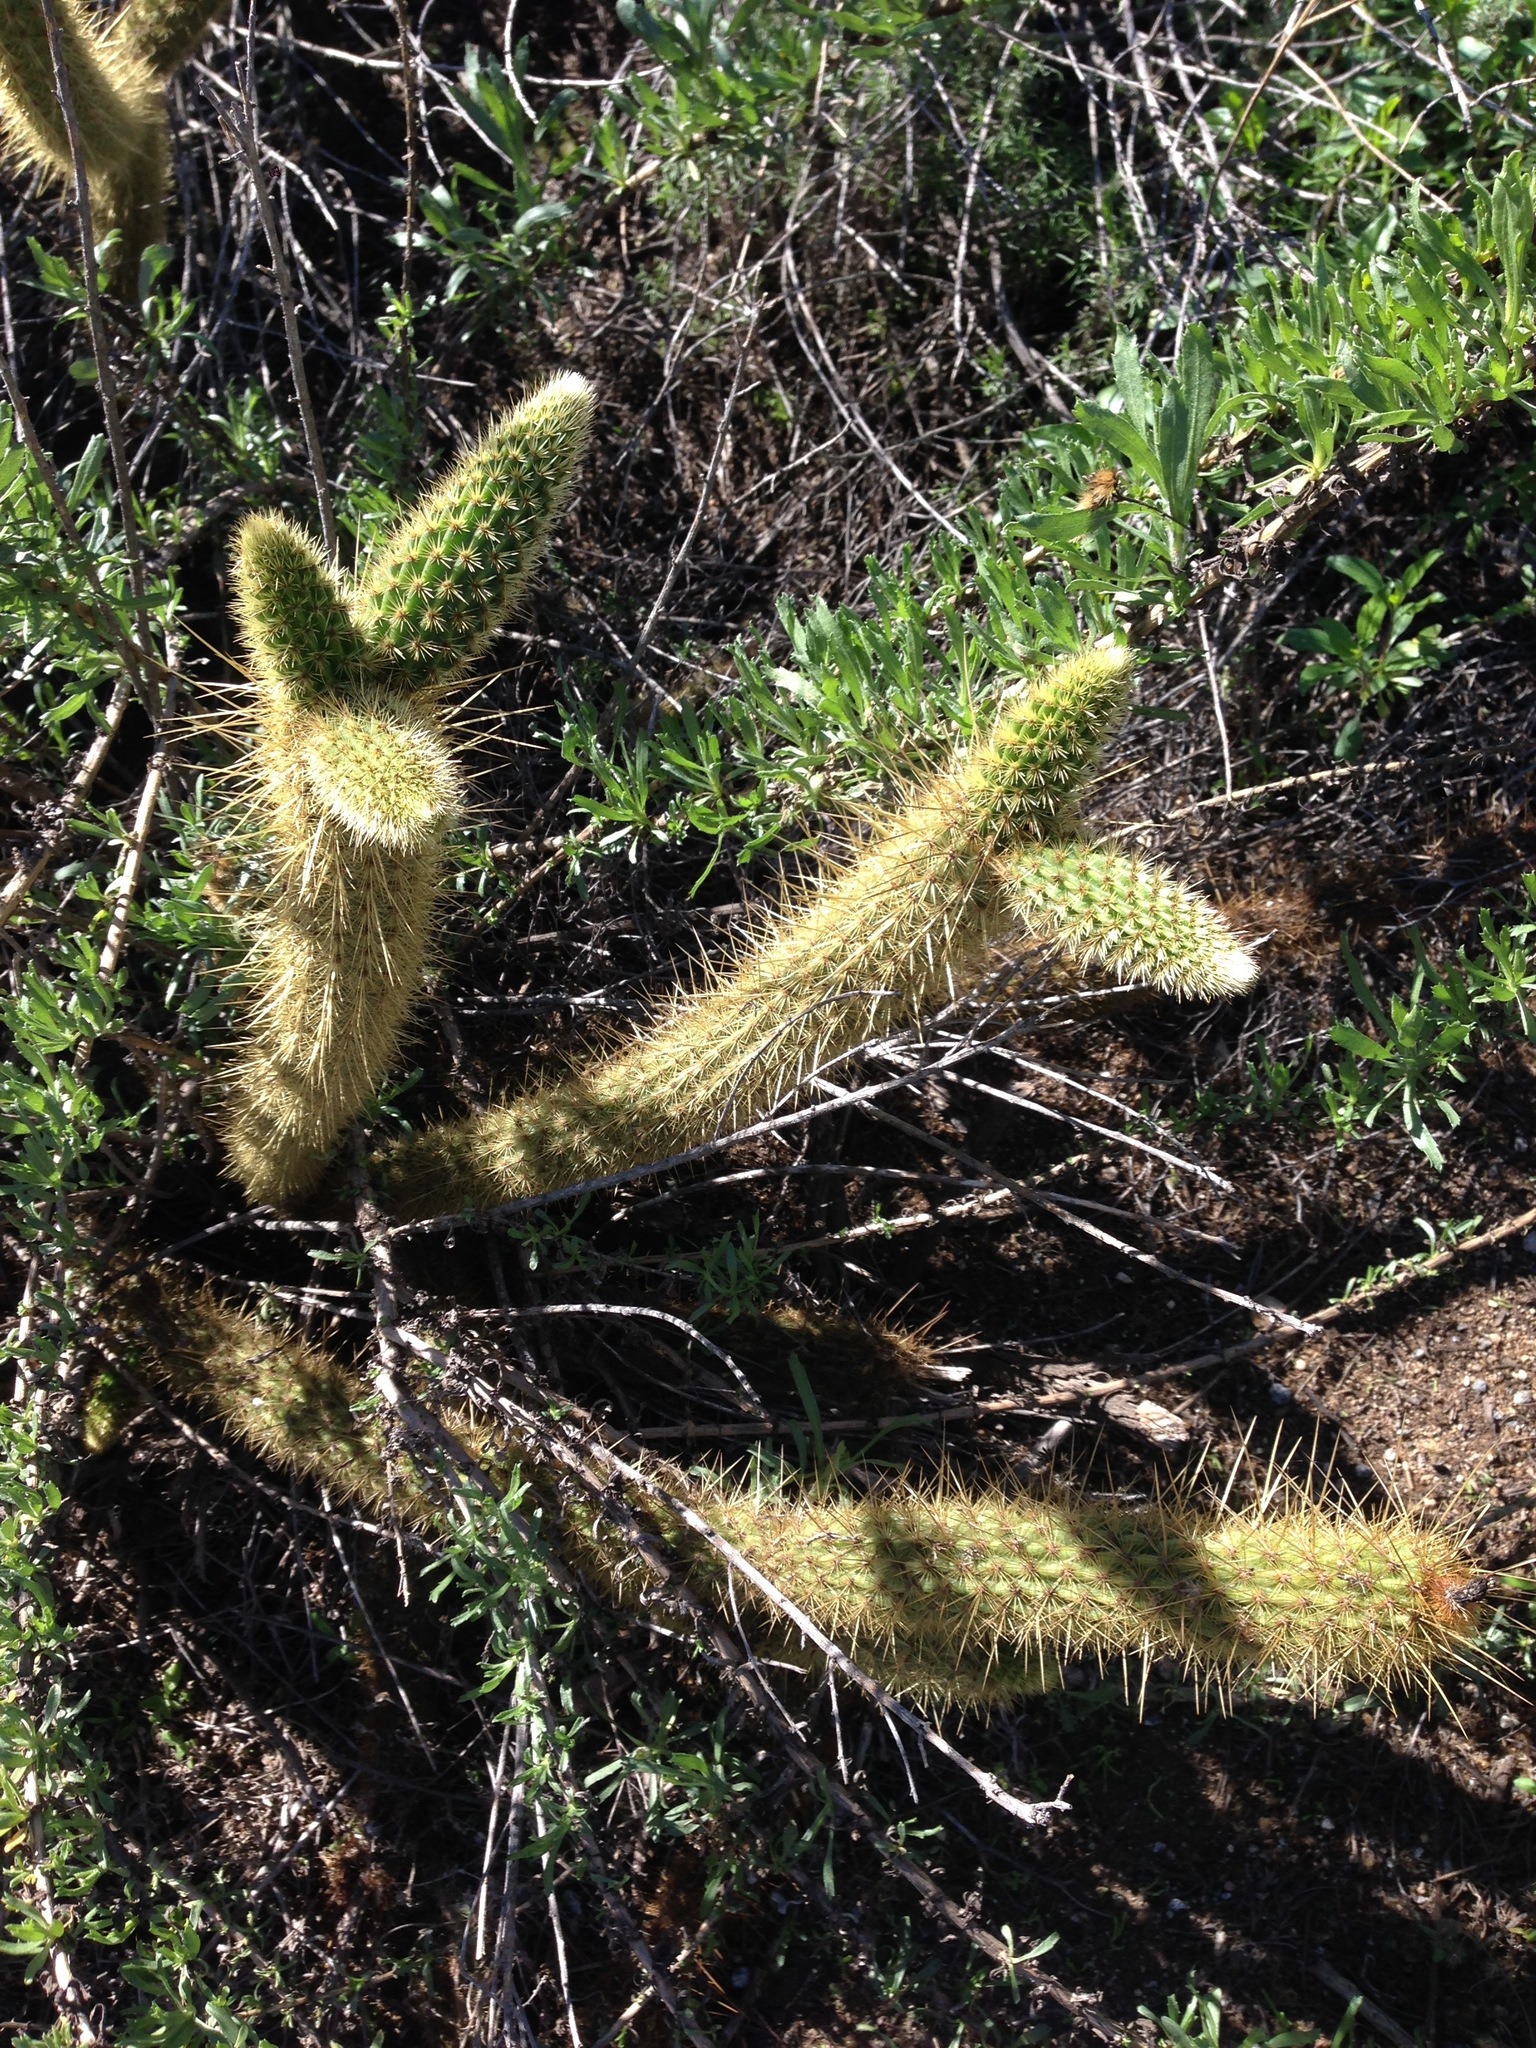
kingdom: Plantae
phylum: Tracheophyta
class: Magnoliopsida
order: Caryophyllales
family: Cactaceae
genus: Bergerocactus
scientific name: Bergerocactus emoryi
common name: Golden snakecactus
